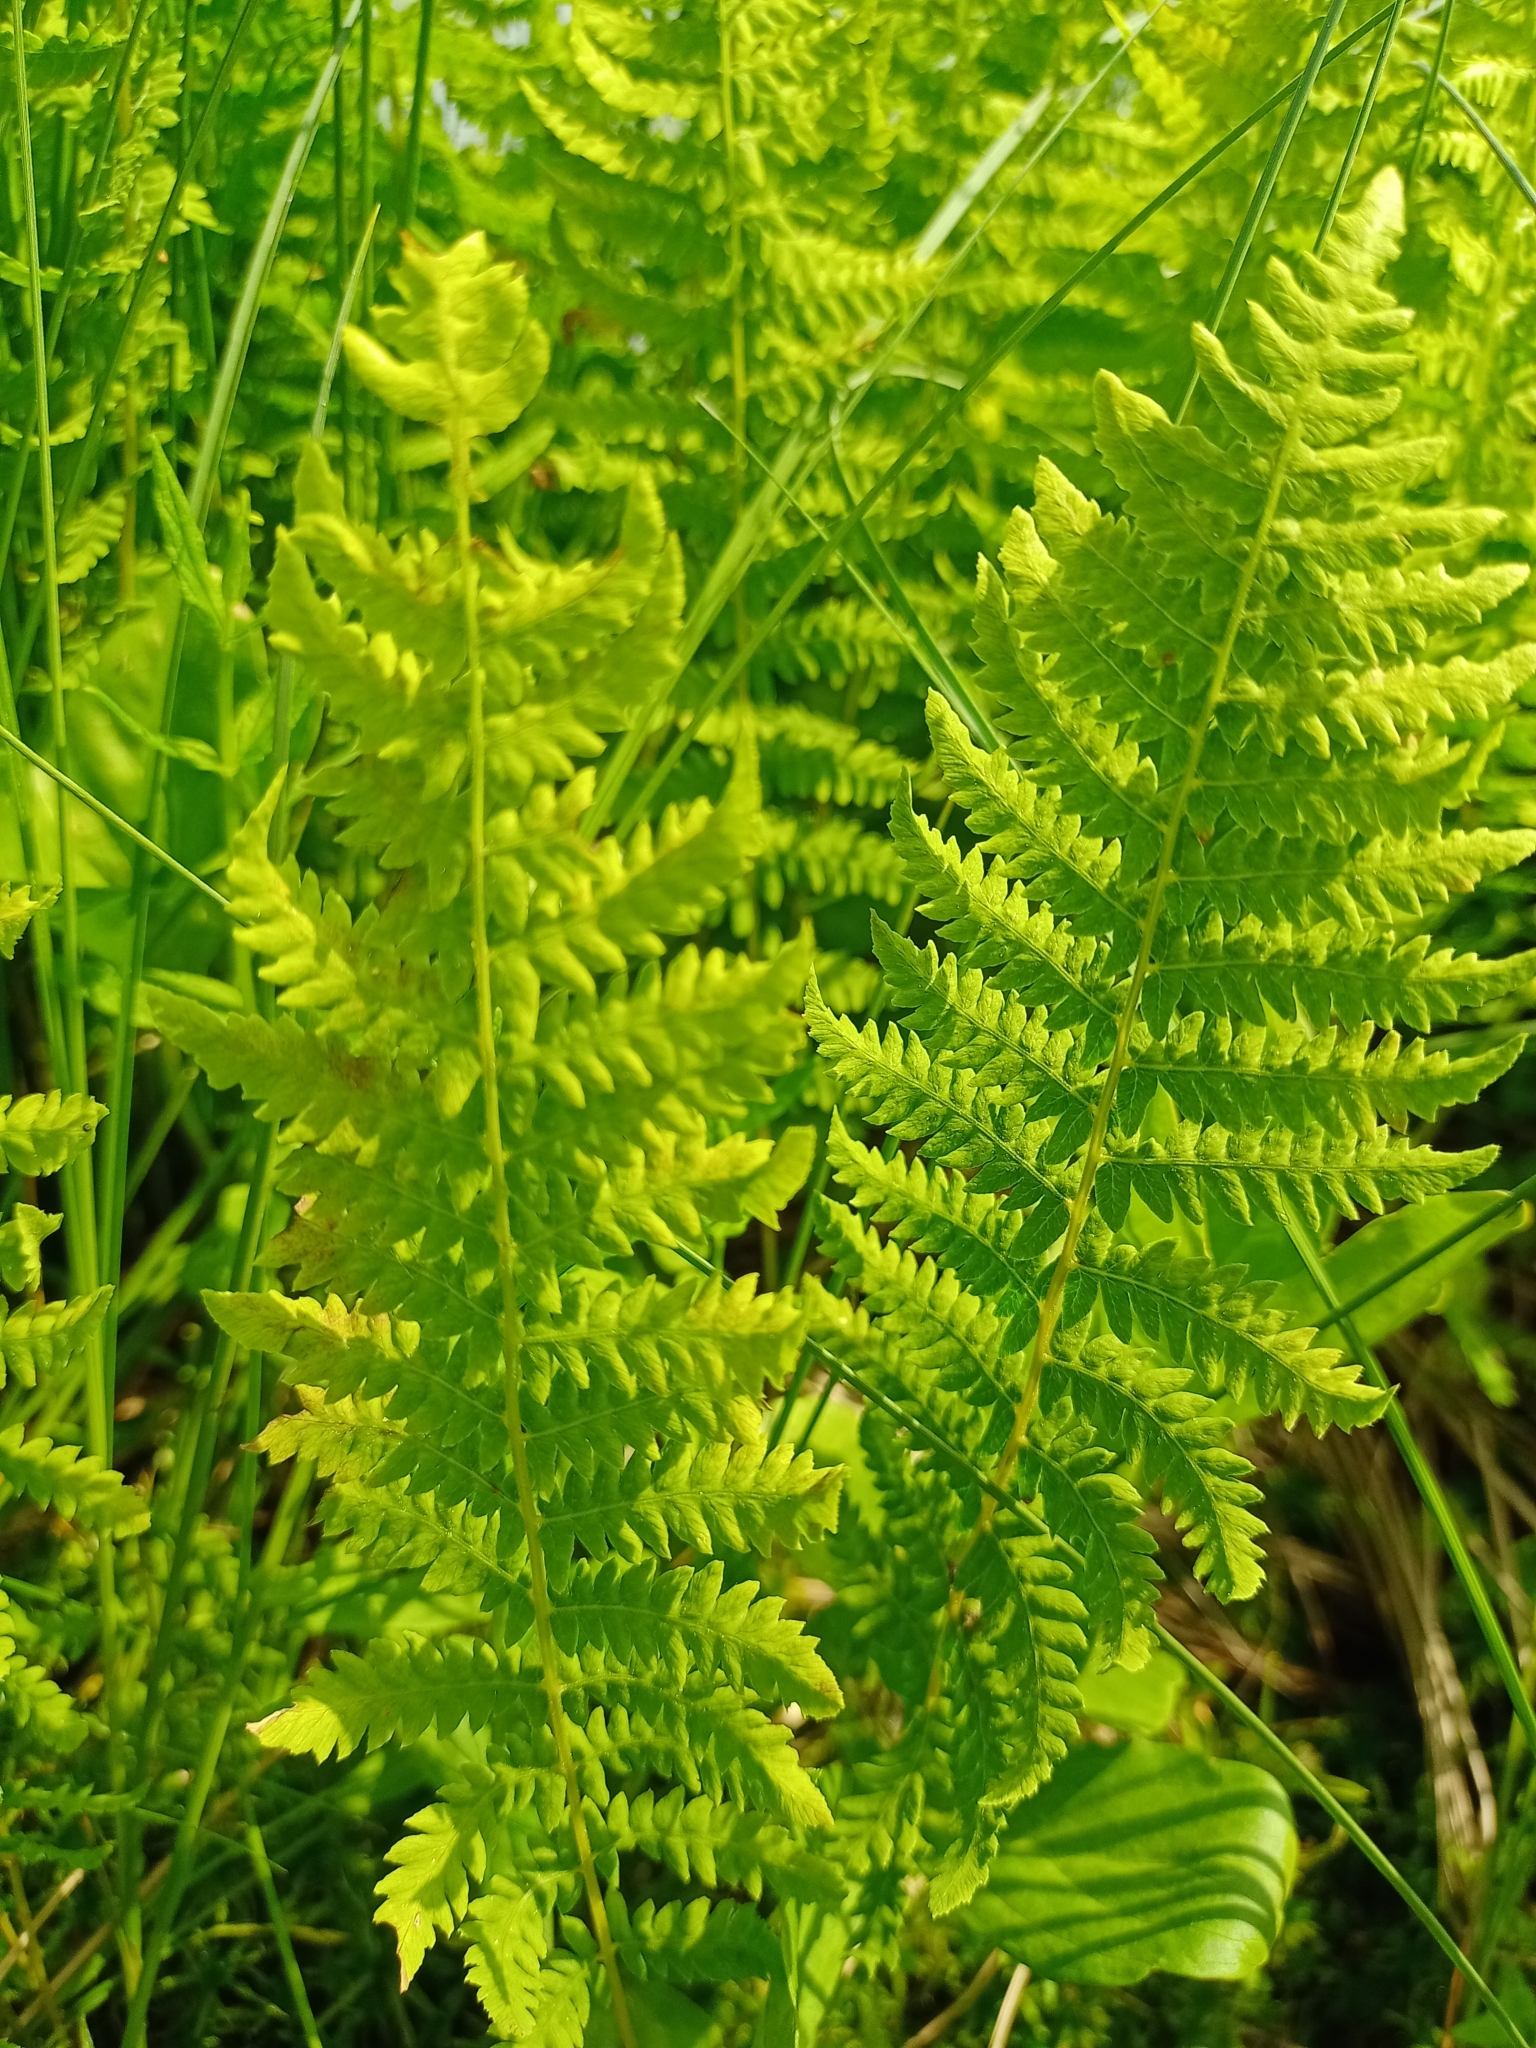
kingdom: Plantae
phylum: Tracheophyta
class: Polypodiopsida
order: Polypodiales
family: Thelypteridaceae
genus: Thelypteris
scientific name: Thelypteris palustris
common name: Marsh fern
